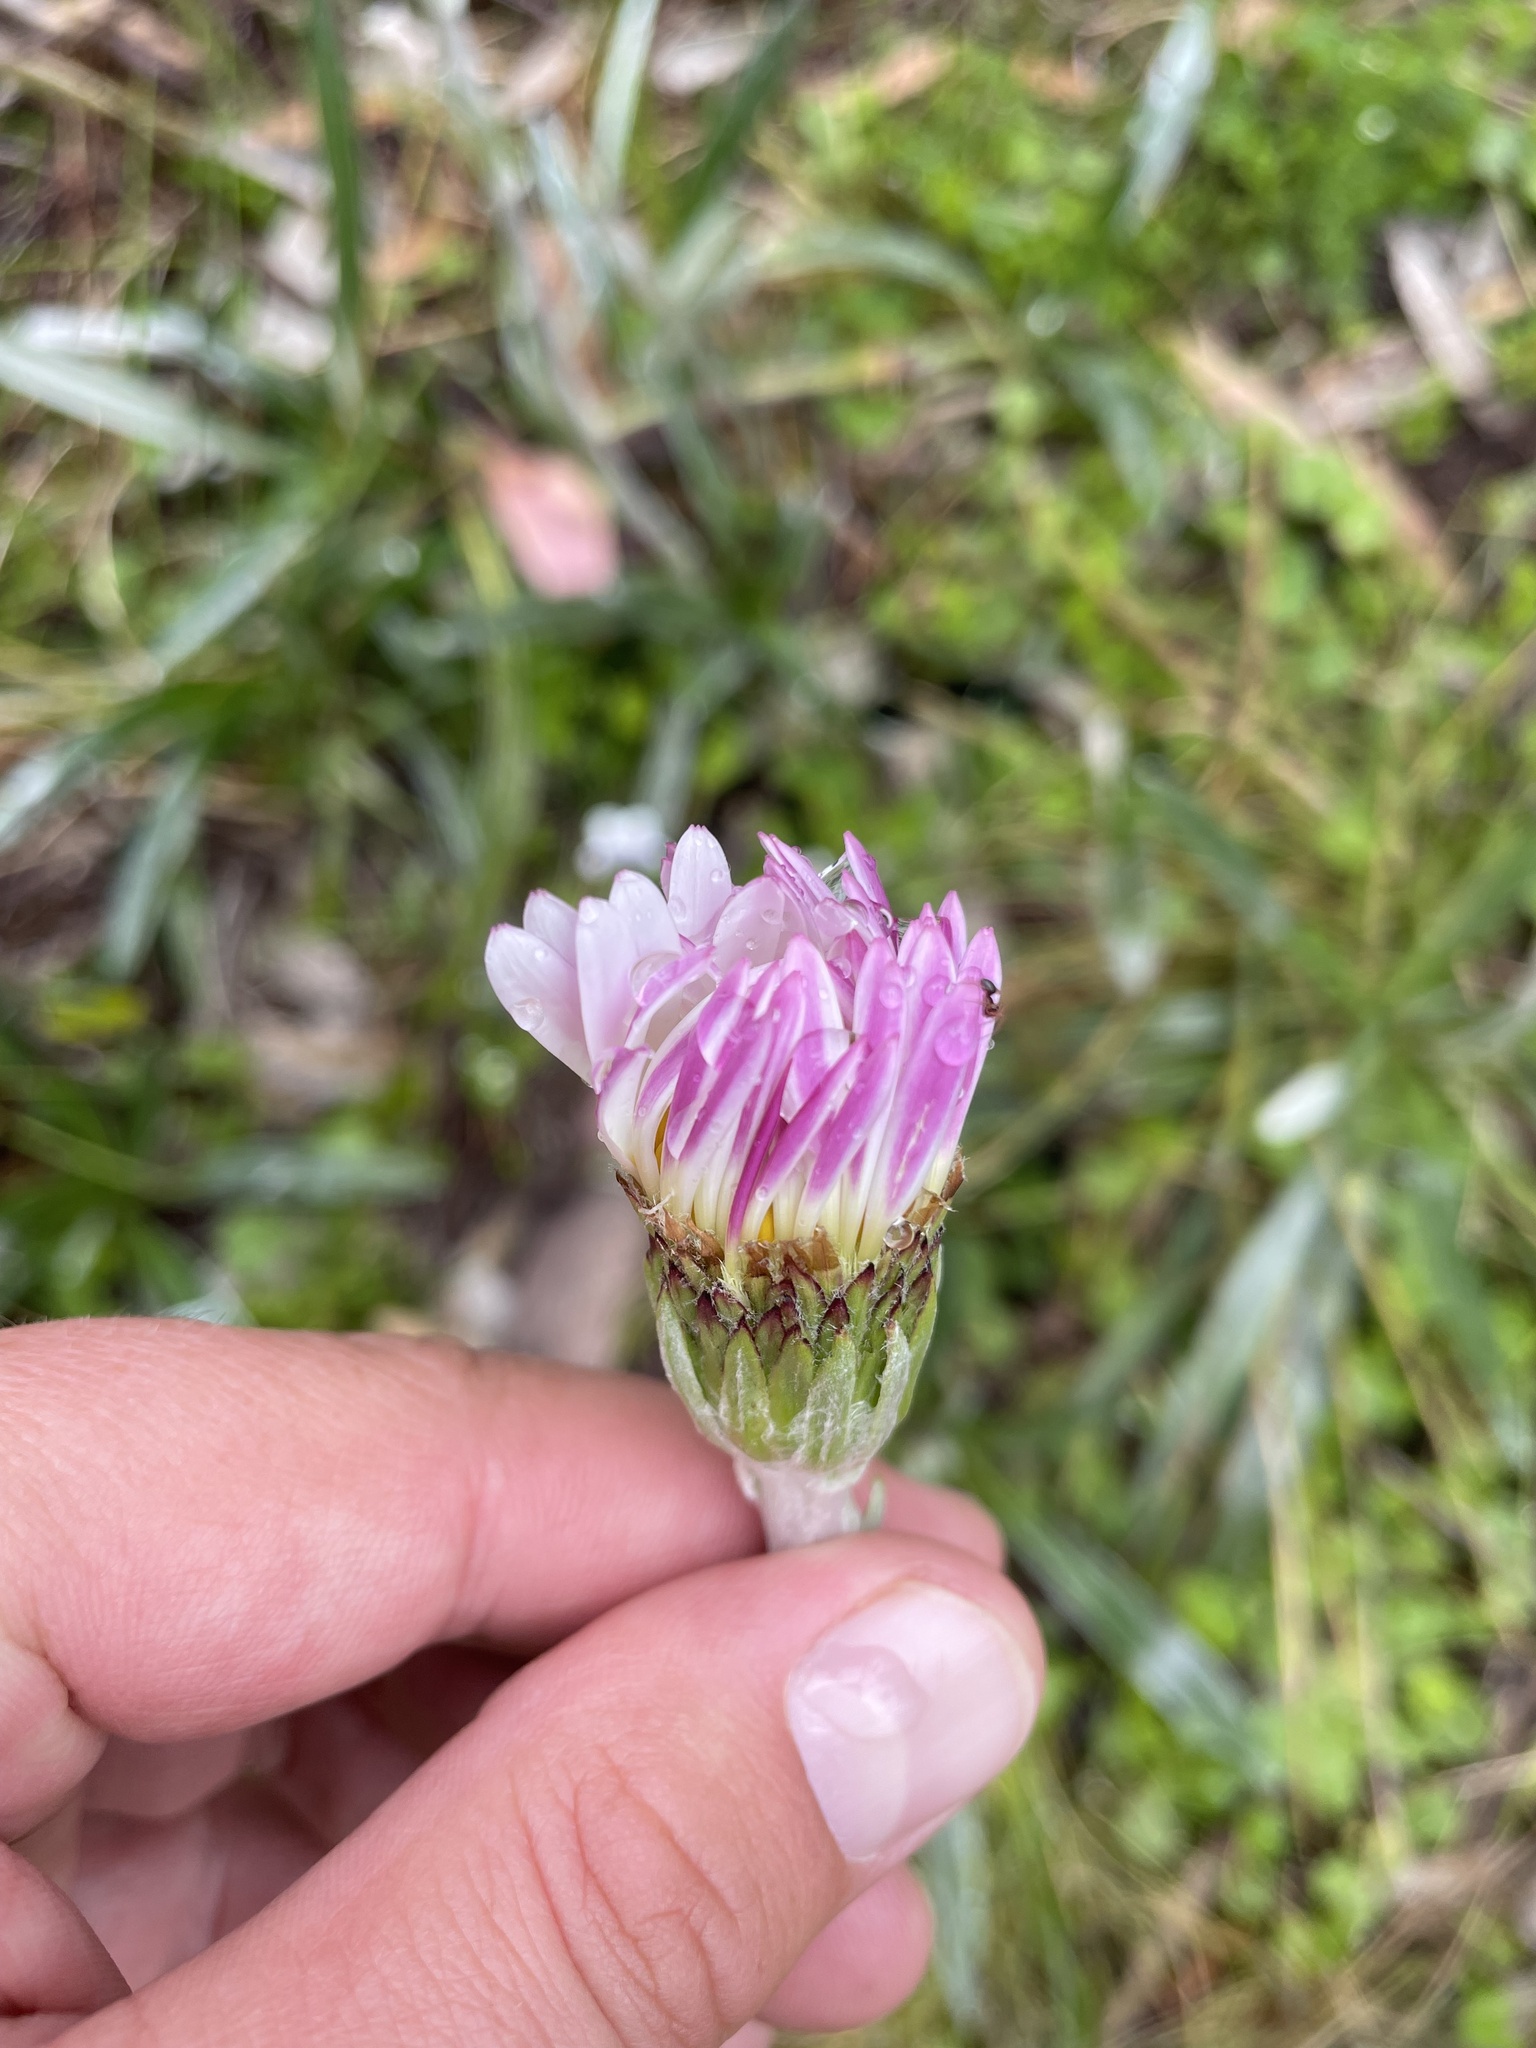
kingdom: Plantae
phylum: Tracheophyta
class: Magnoliopsida
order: Asterales
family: Asteraceae
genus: Celmisia
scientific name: Celmisia tomentella
